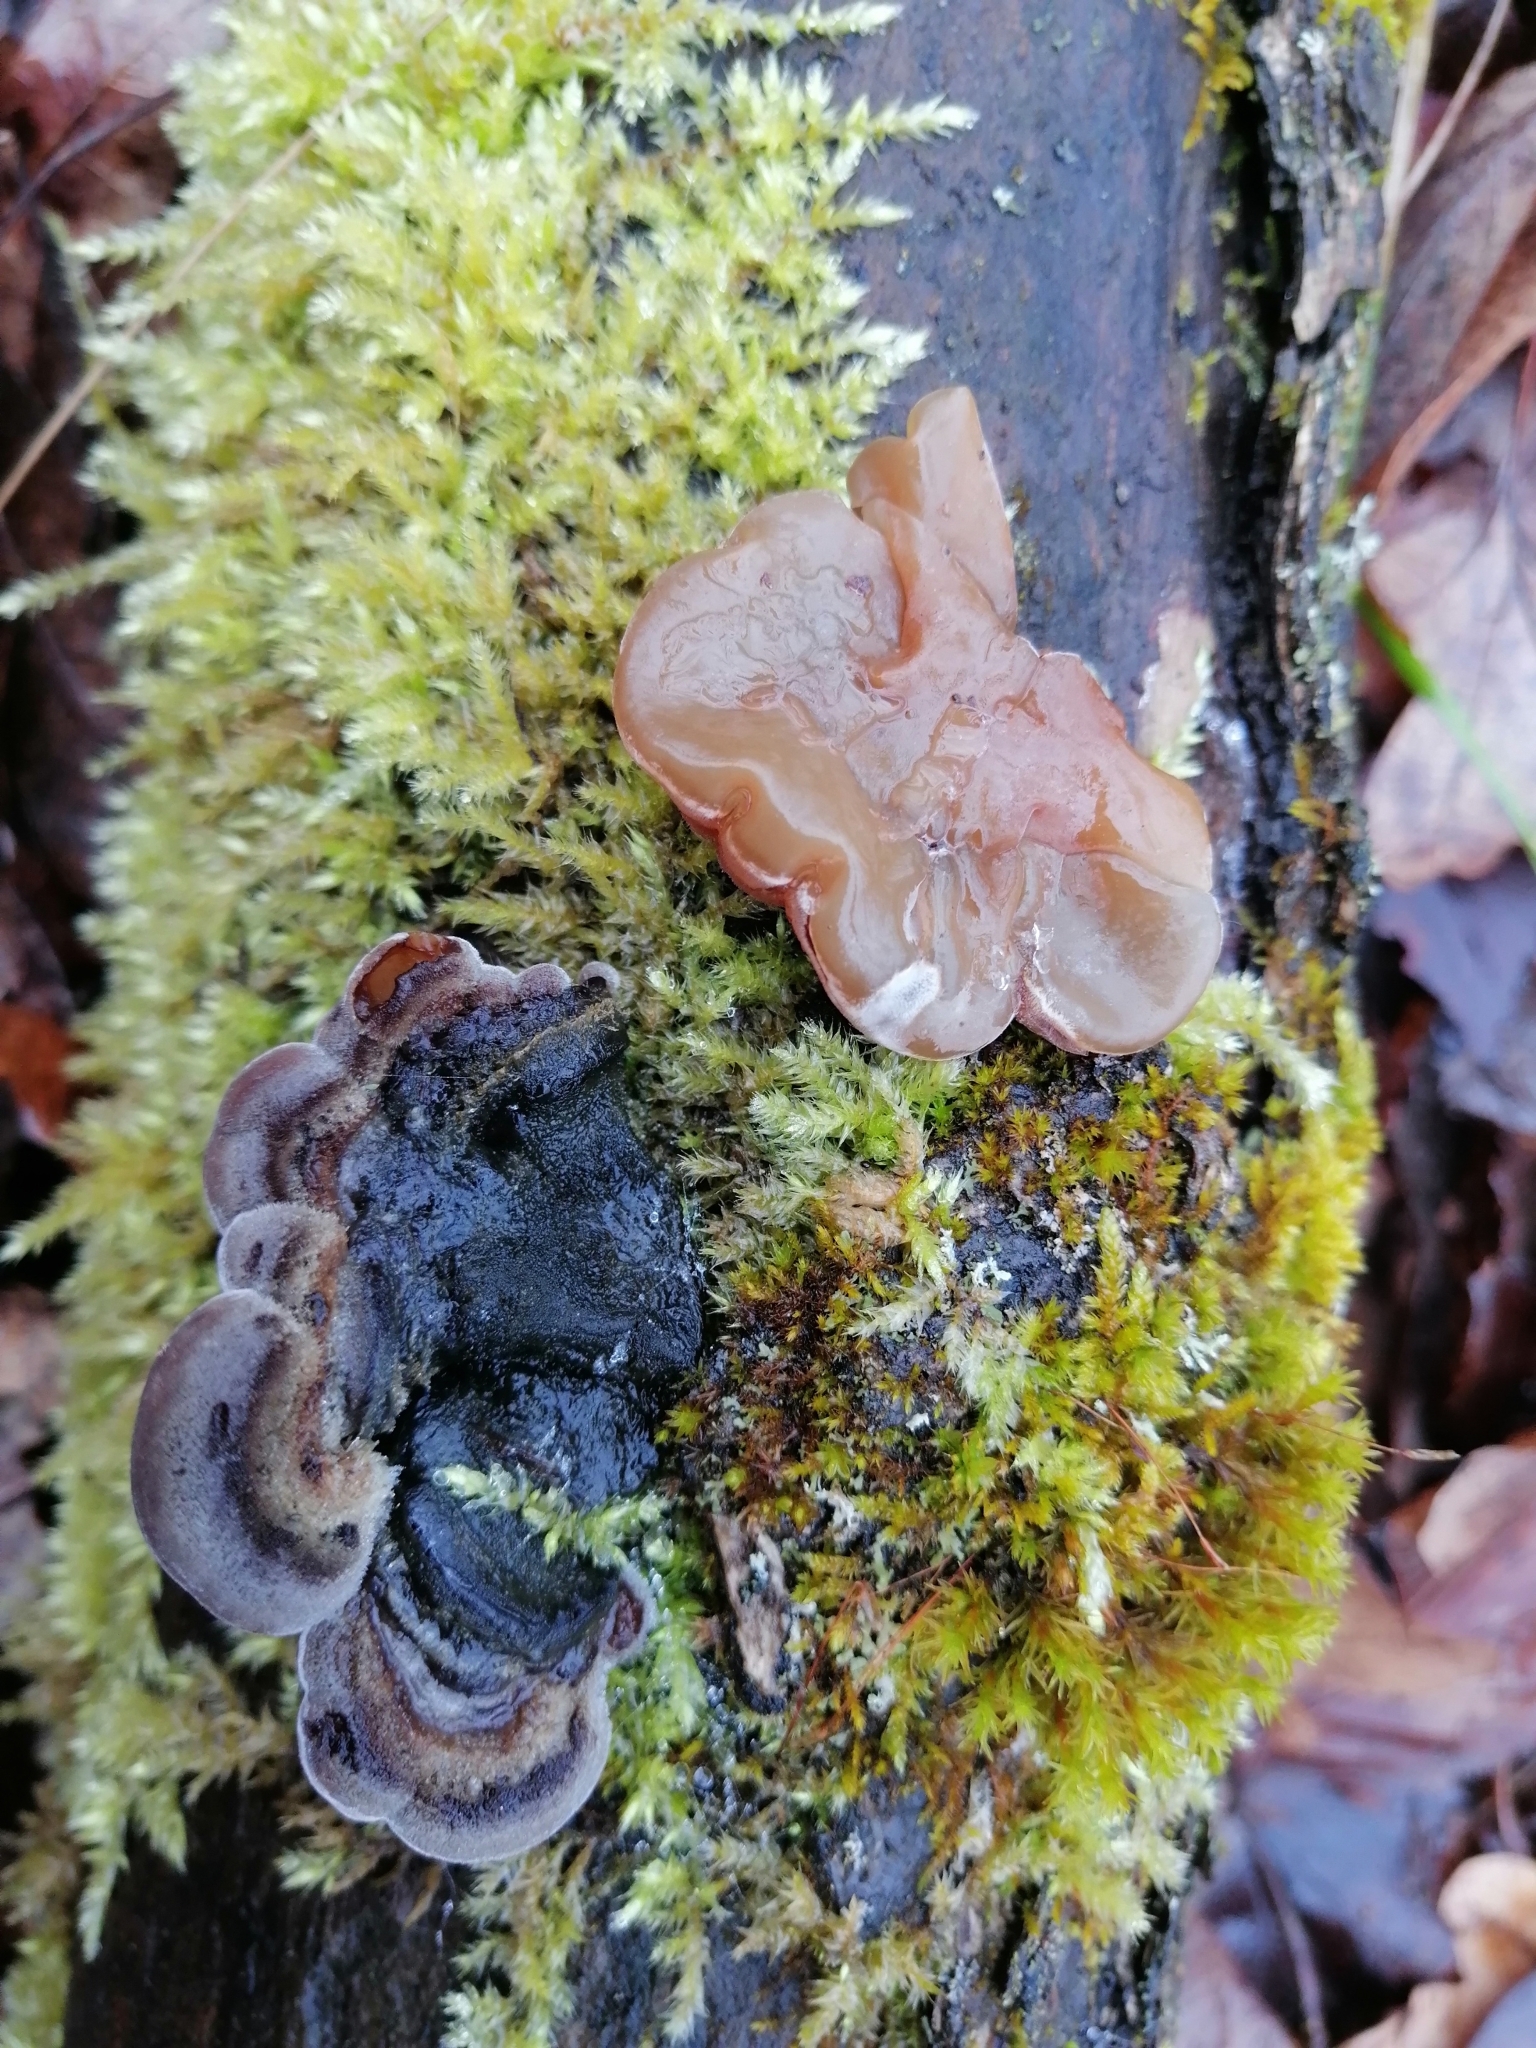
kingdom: Fungi
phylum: Basidiomycota
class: Agaricomycetes
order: Auriculariales
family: Auriculariaceae
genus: Auricularia
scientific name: Auricularia mesenterica
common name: Tripe fungus
